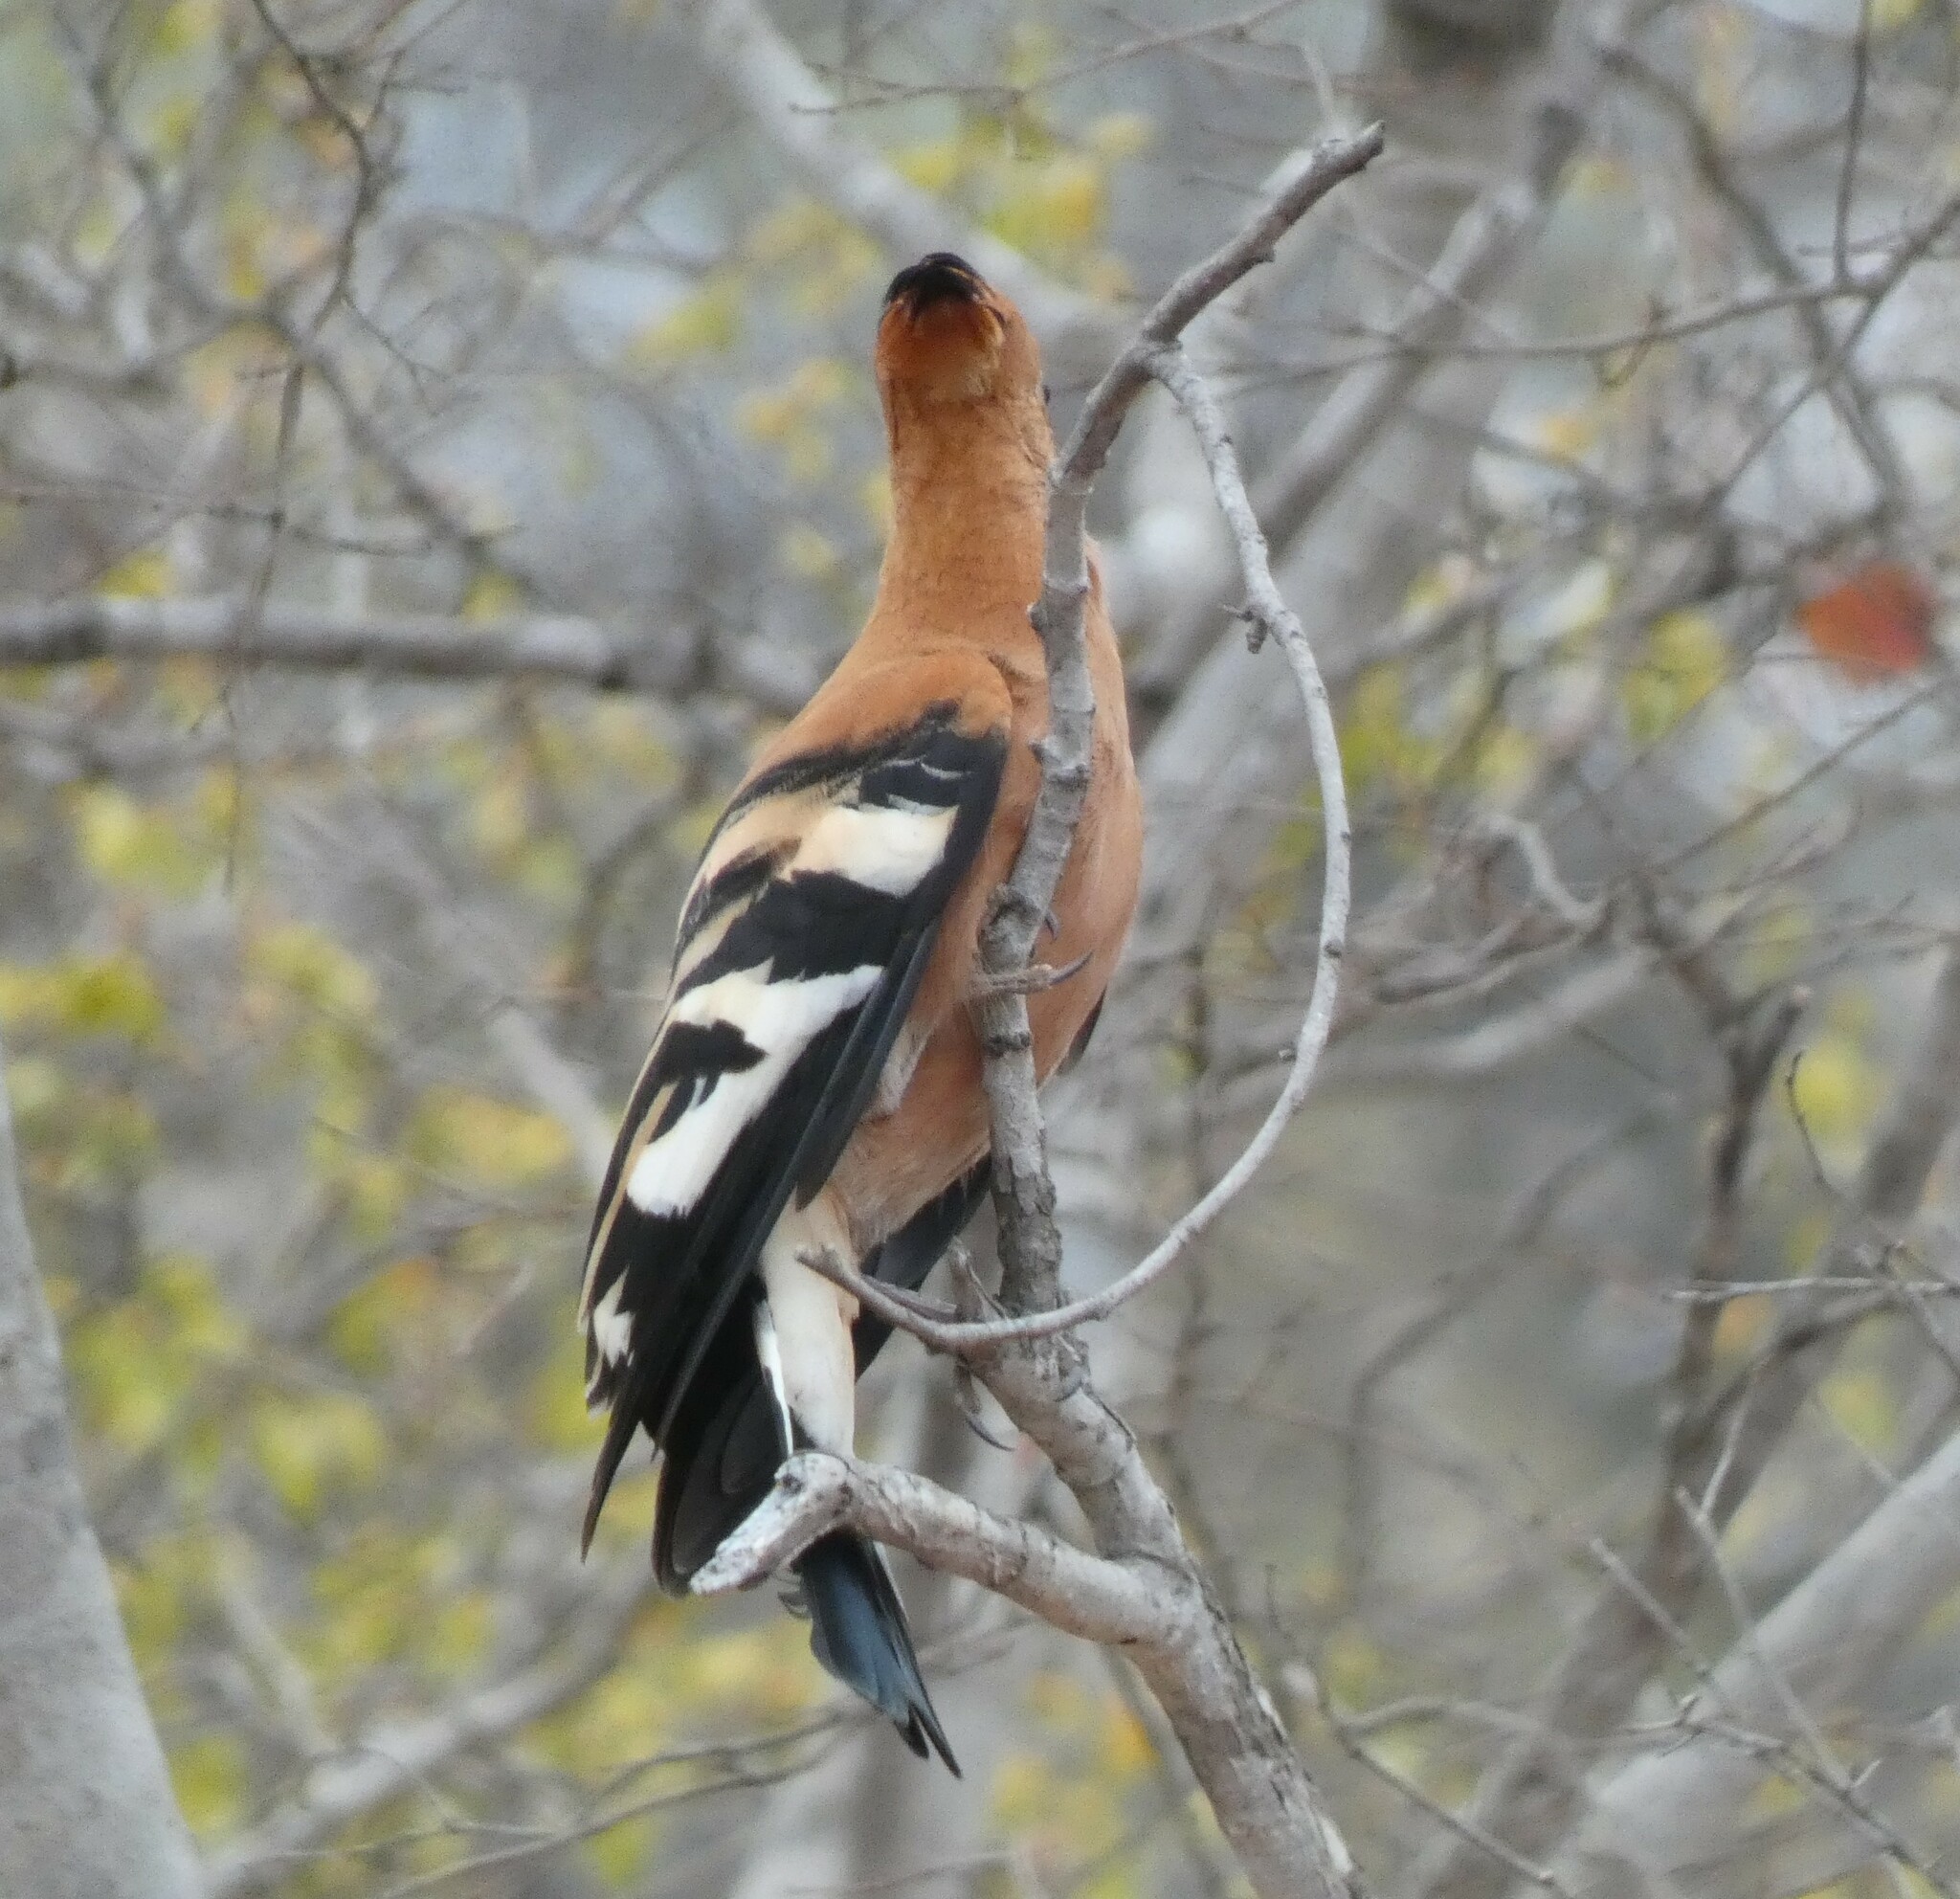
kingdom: Animalia
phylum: Chordata
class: Aves
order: Bucerotiformes
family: Upupidae
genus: Upupa
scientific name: Upupa epops
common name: Eurasian hoopoe
